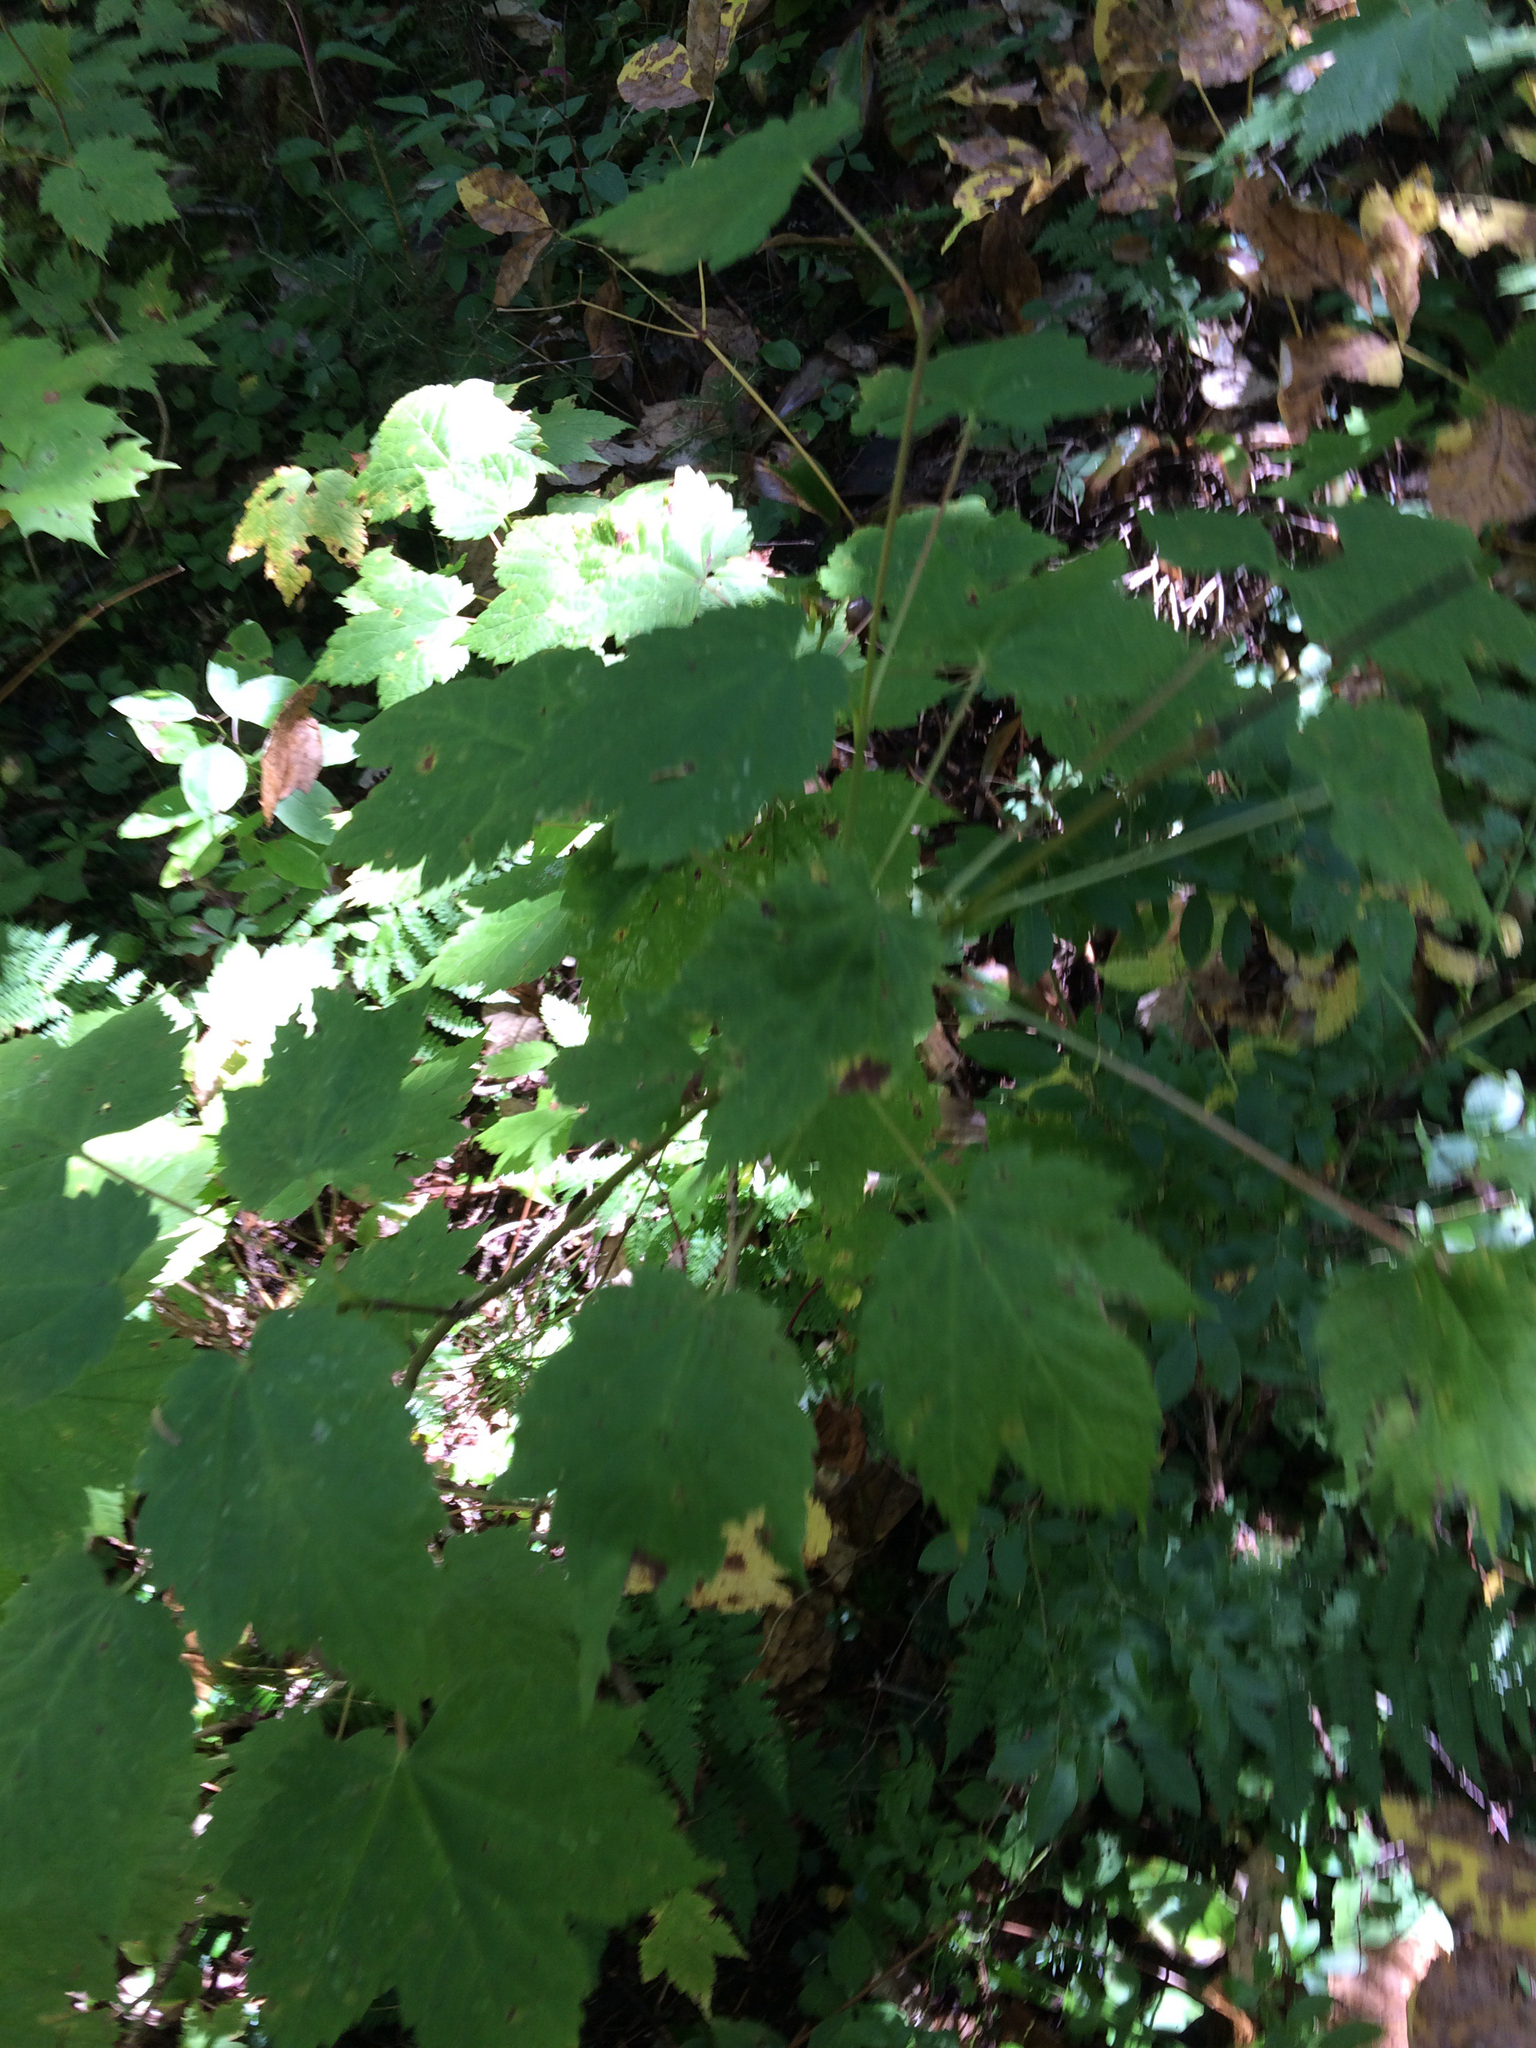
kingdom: Plantae
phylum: Tracheophyta
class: Magnoliopsida
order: Sapindales
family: Sapindaceae
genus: Acer
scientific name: Acer spicatum
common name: Mountain maple
